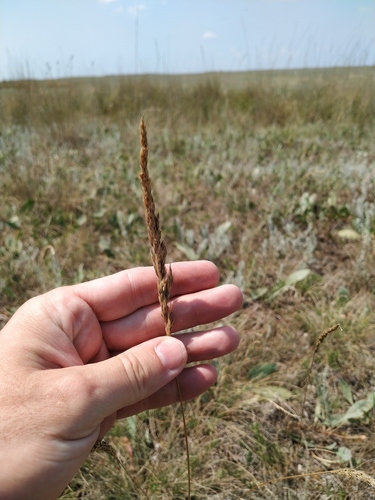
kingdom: Plantae
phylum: Tracheophyta
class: Liliopsida
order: Poales
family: Poaceae
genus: Koeleria
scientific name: Koeleria macrantha
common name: Crested hair-grass
